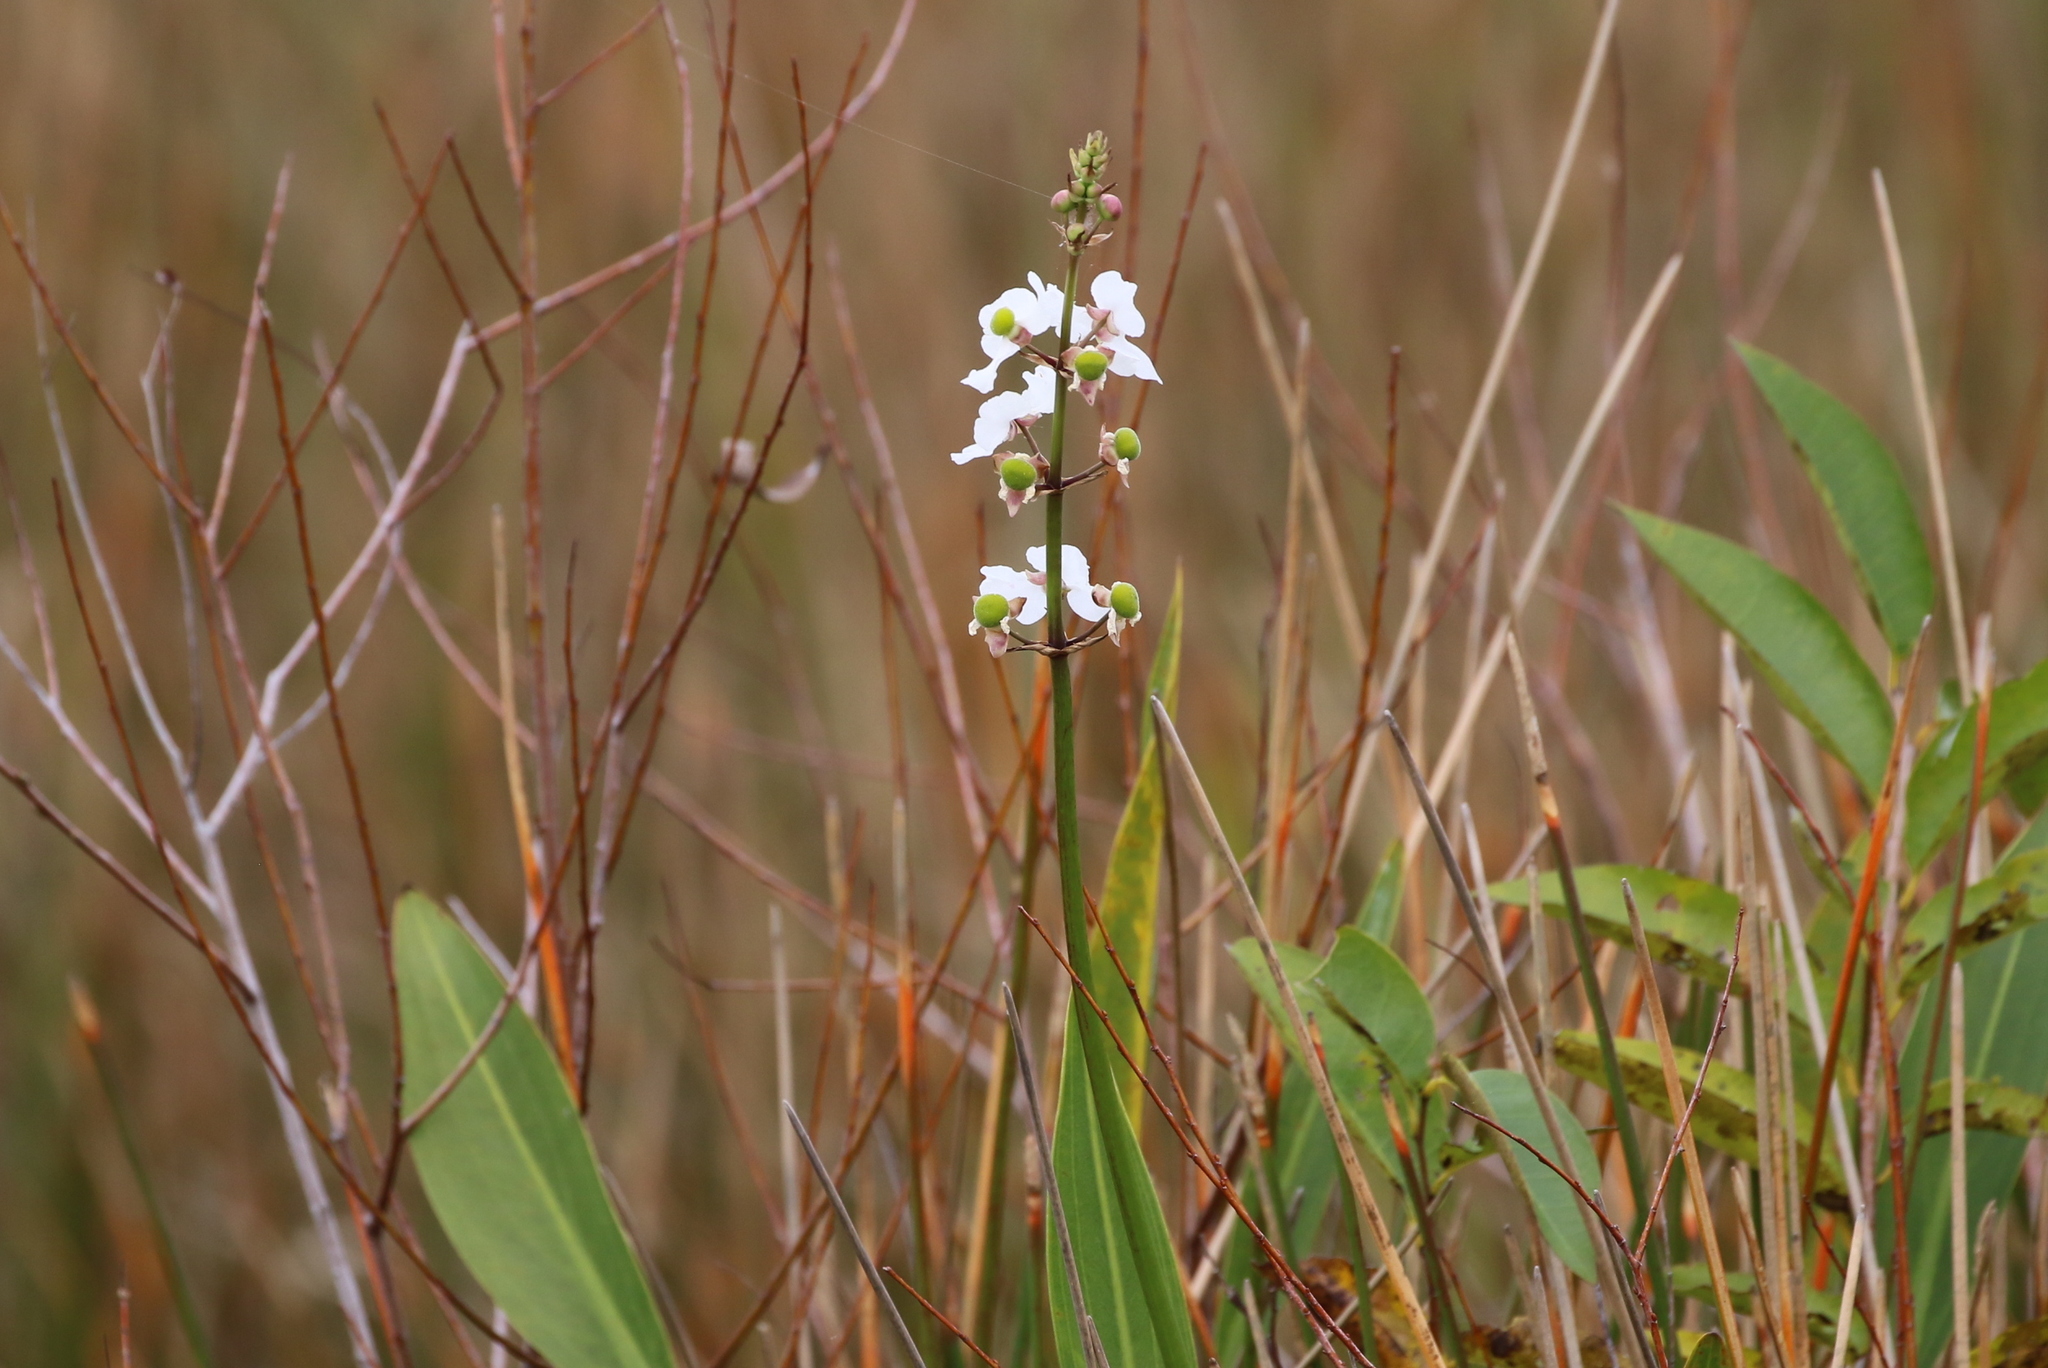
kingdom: Plantae
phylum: Tracheophyta
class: Liliopsida
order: Alismatales
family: Alismataceae
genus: Sagittaria
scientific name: Sagittaria lancifolia
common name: Lance-leaf arrowhead
